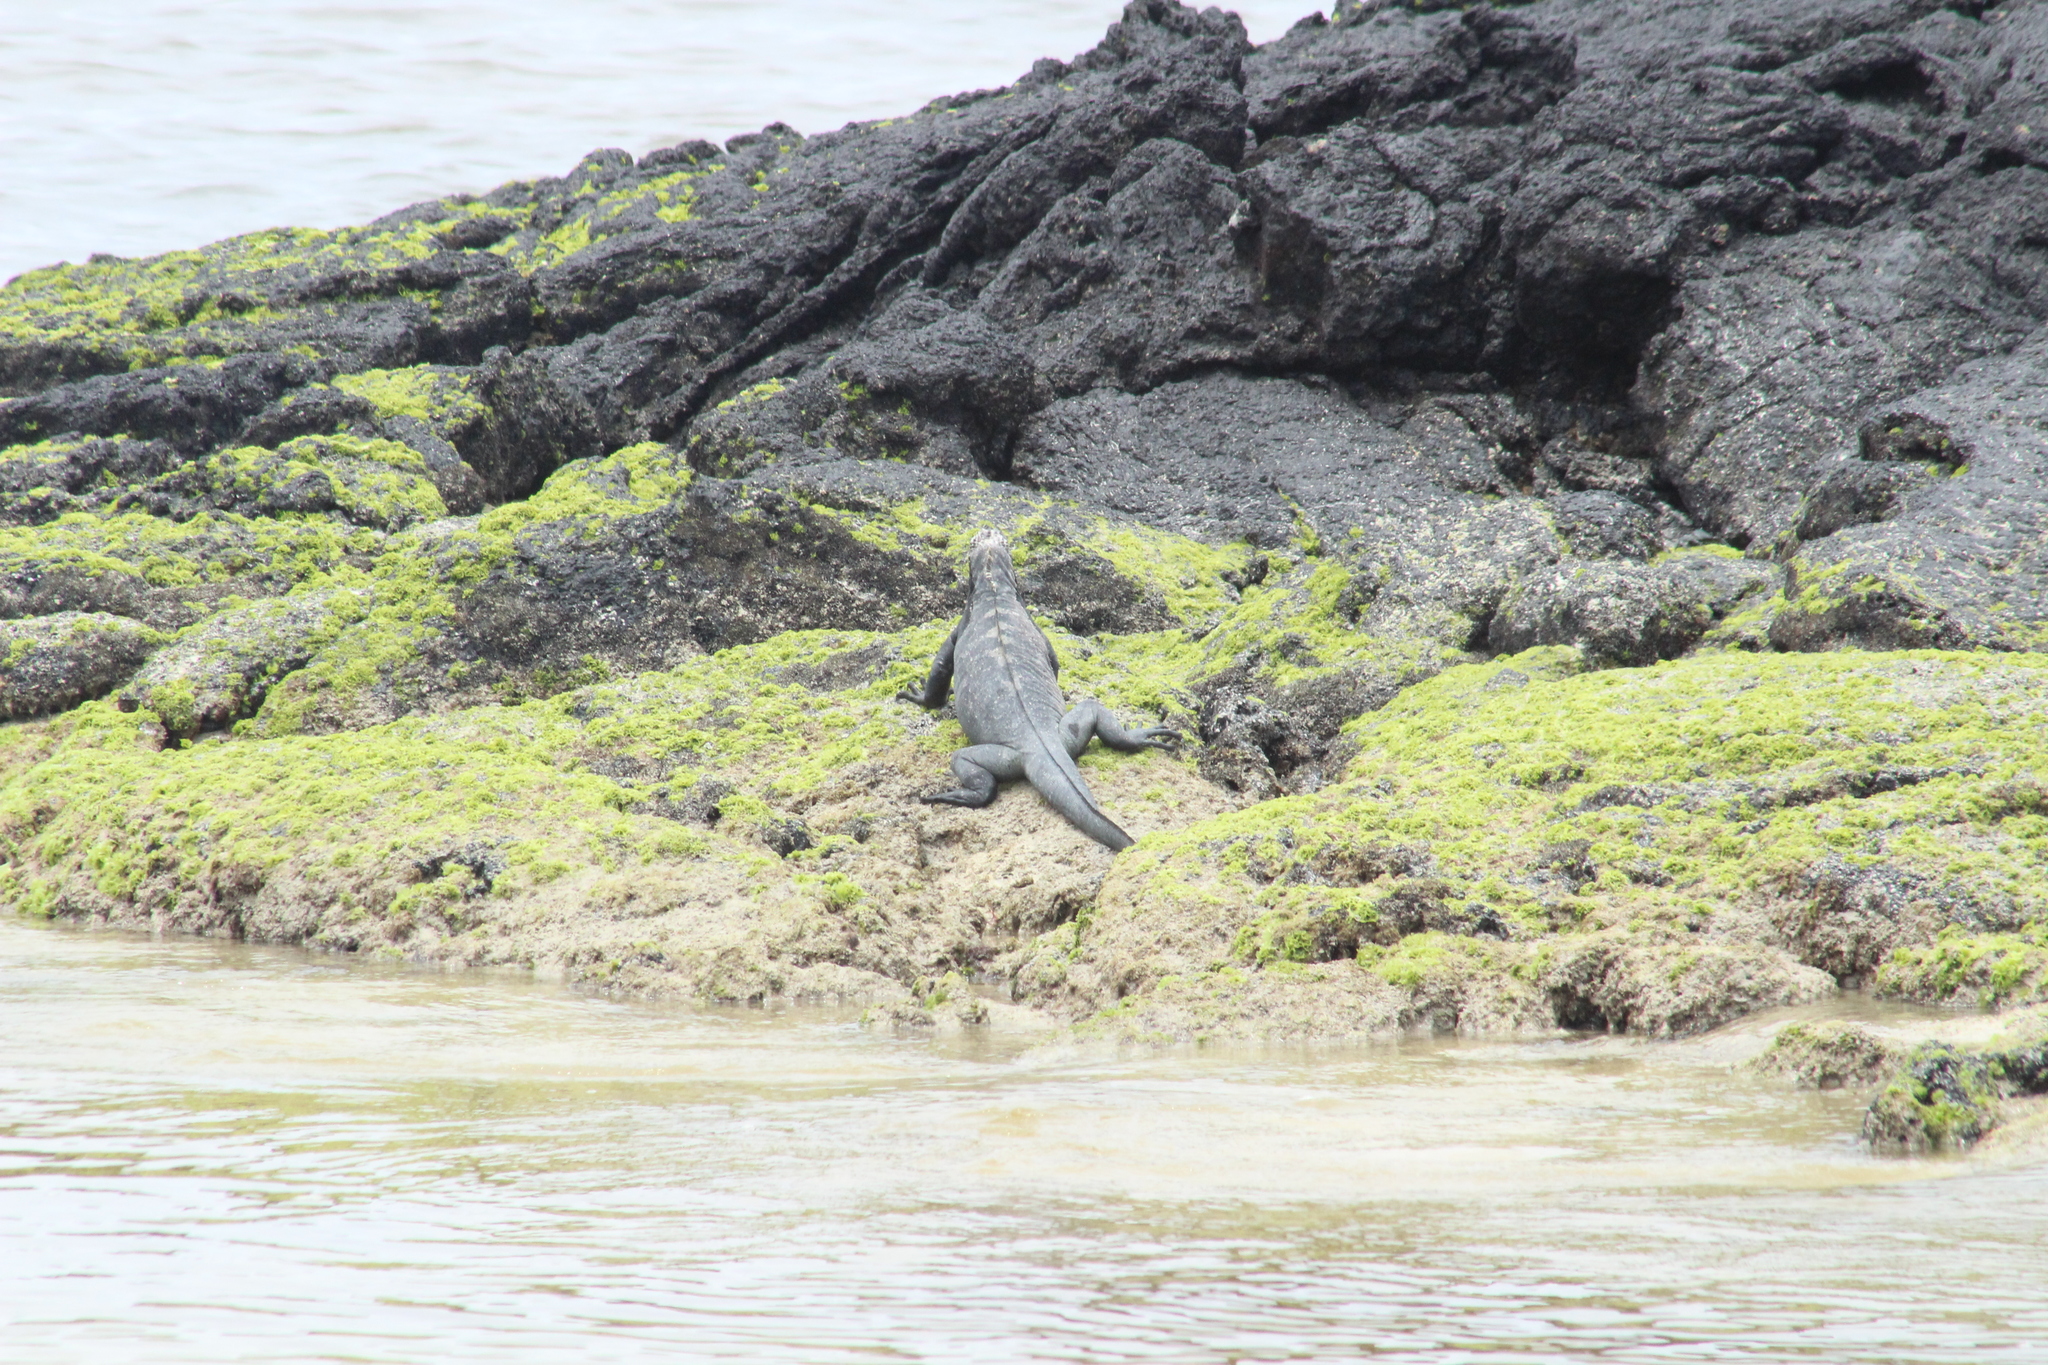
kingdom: Animalia
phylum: Chordata
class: Squamata
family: Iguanidae
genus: Amblyrhynchus
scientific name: Amblyrhynchus cristatus
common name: Marine iguana
